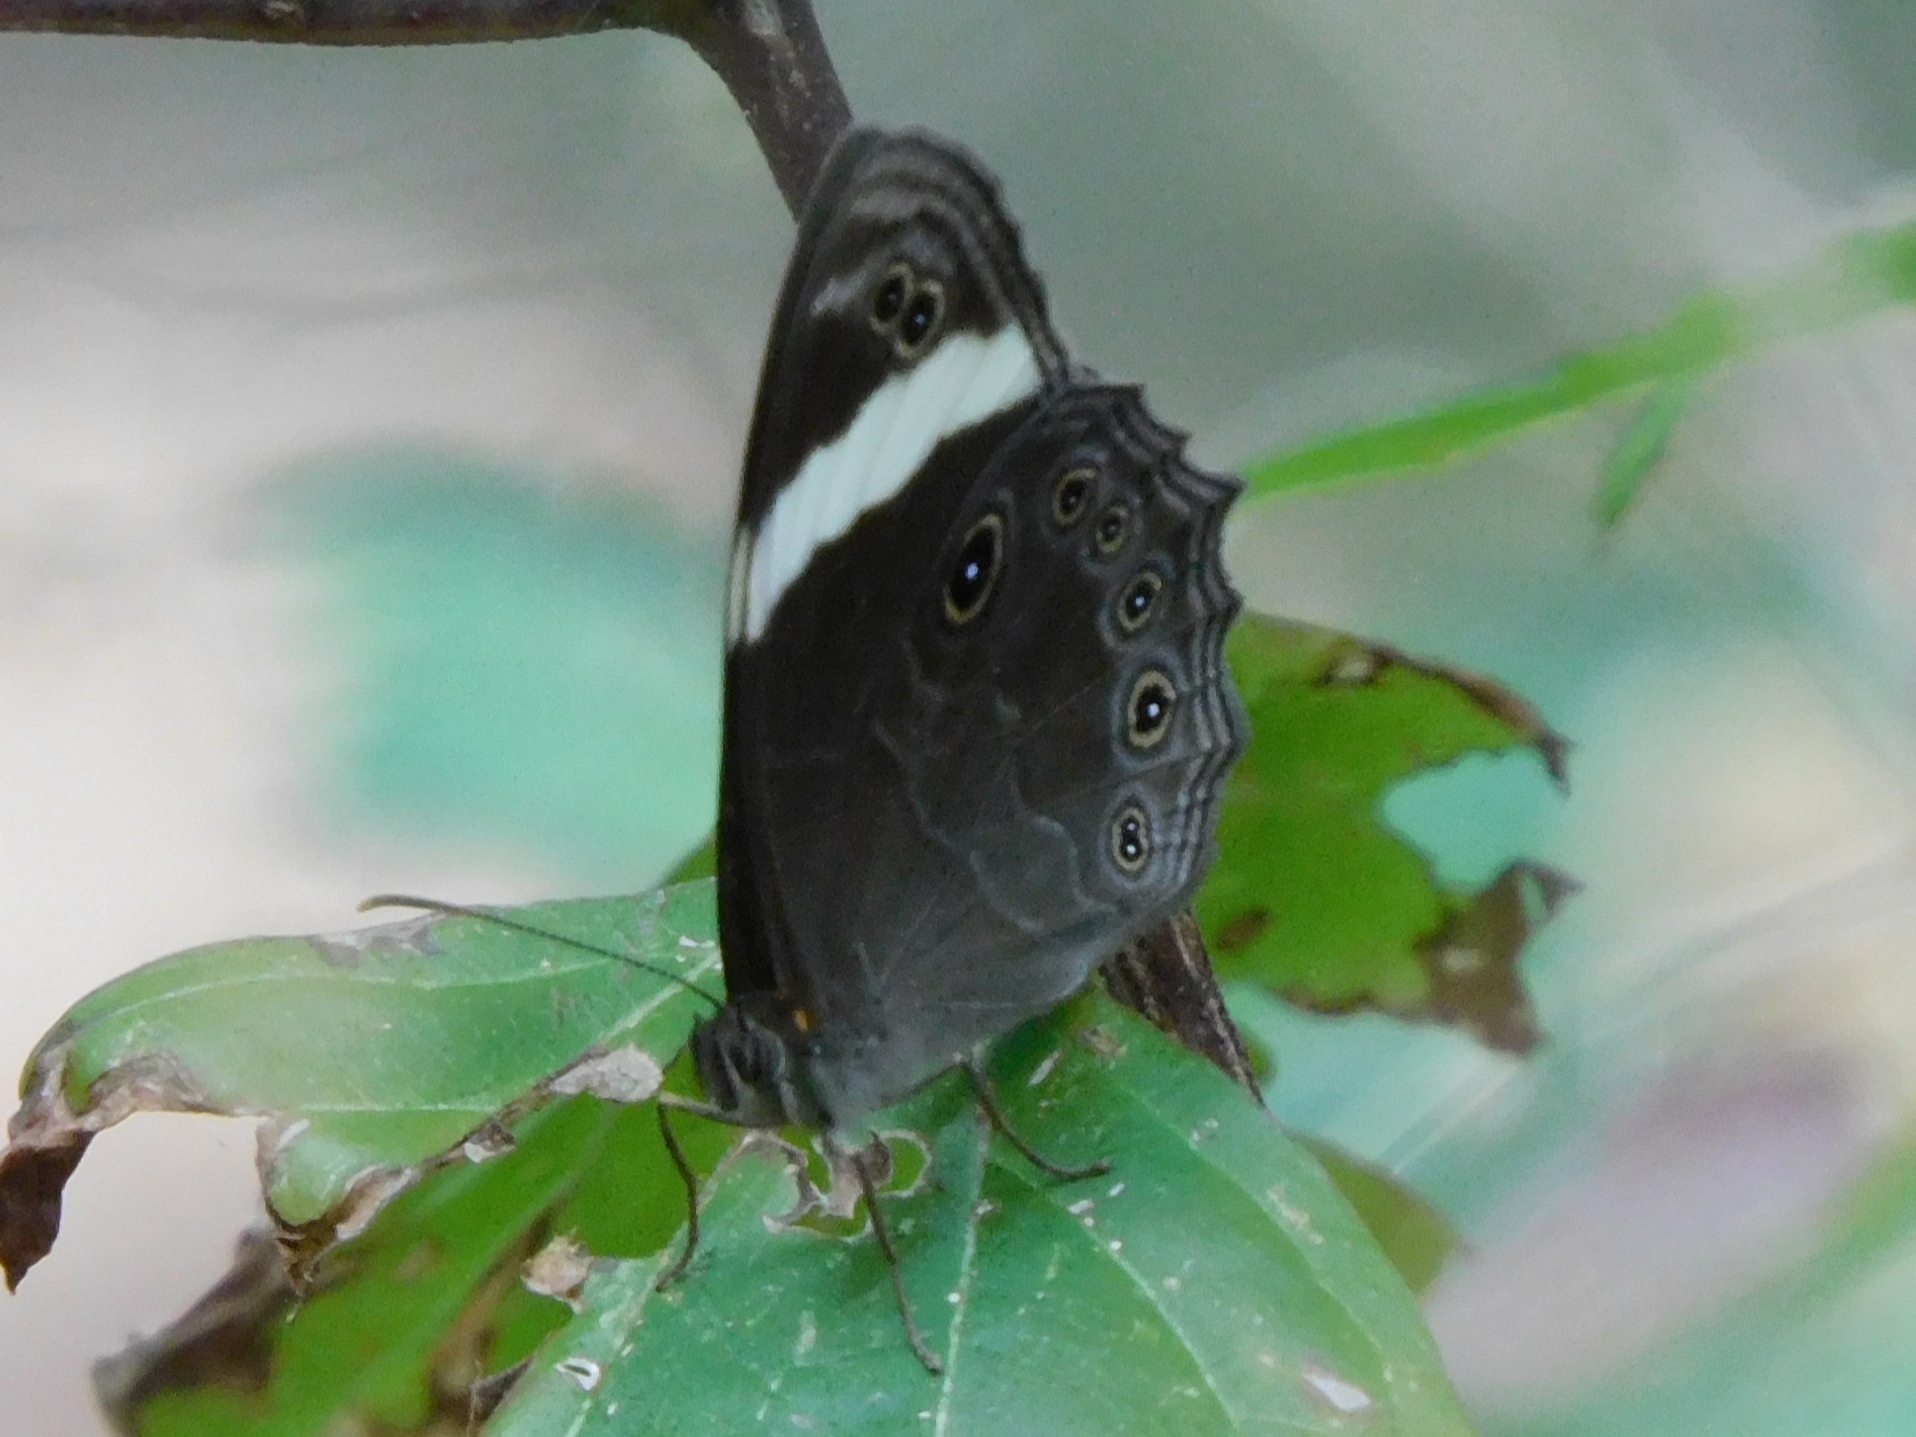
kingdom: Animalia
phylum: Arthropoda
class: Insecta
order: Lepidoptera
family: Nymphalidae
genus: Lethe
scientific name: Lethe verma
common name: Straight-banded treebrown
